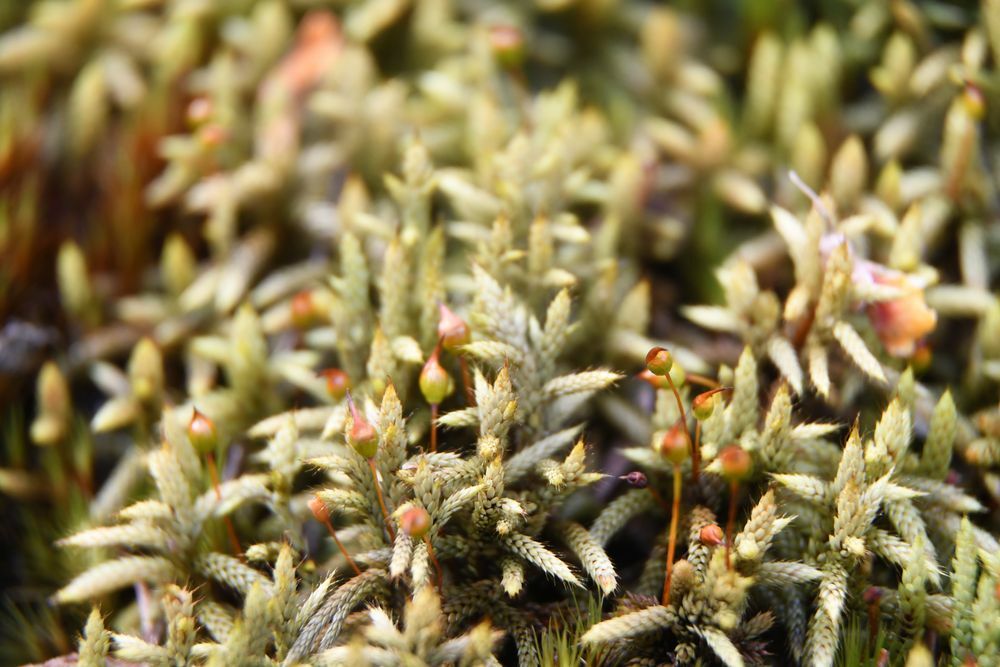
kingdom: Plantae
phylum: Bryophyta
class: Bryopsida
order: Hedwigiales
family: Hedwigiaceae
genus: Rhacocarpus
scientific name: Rhacocarpus purpurascens
